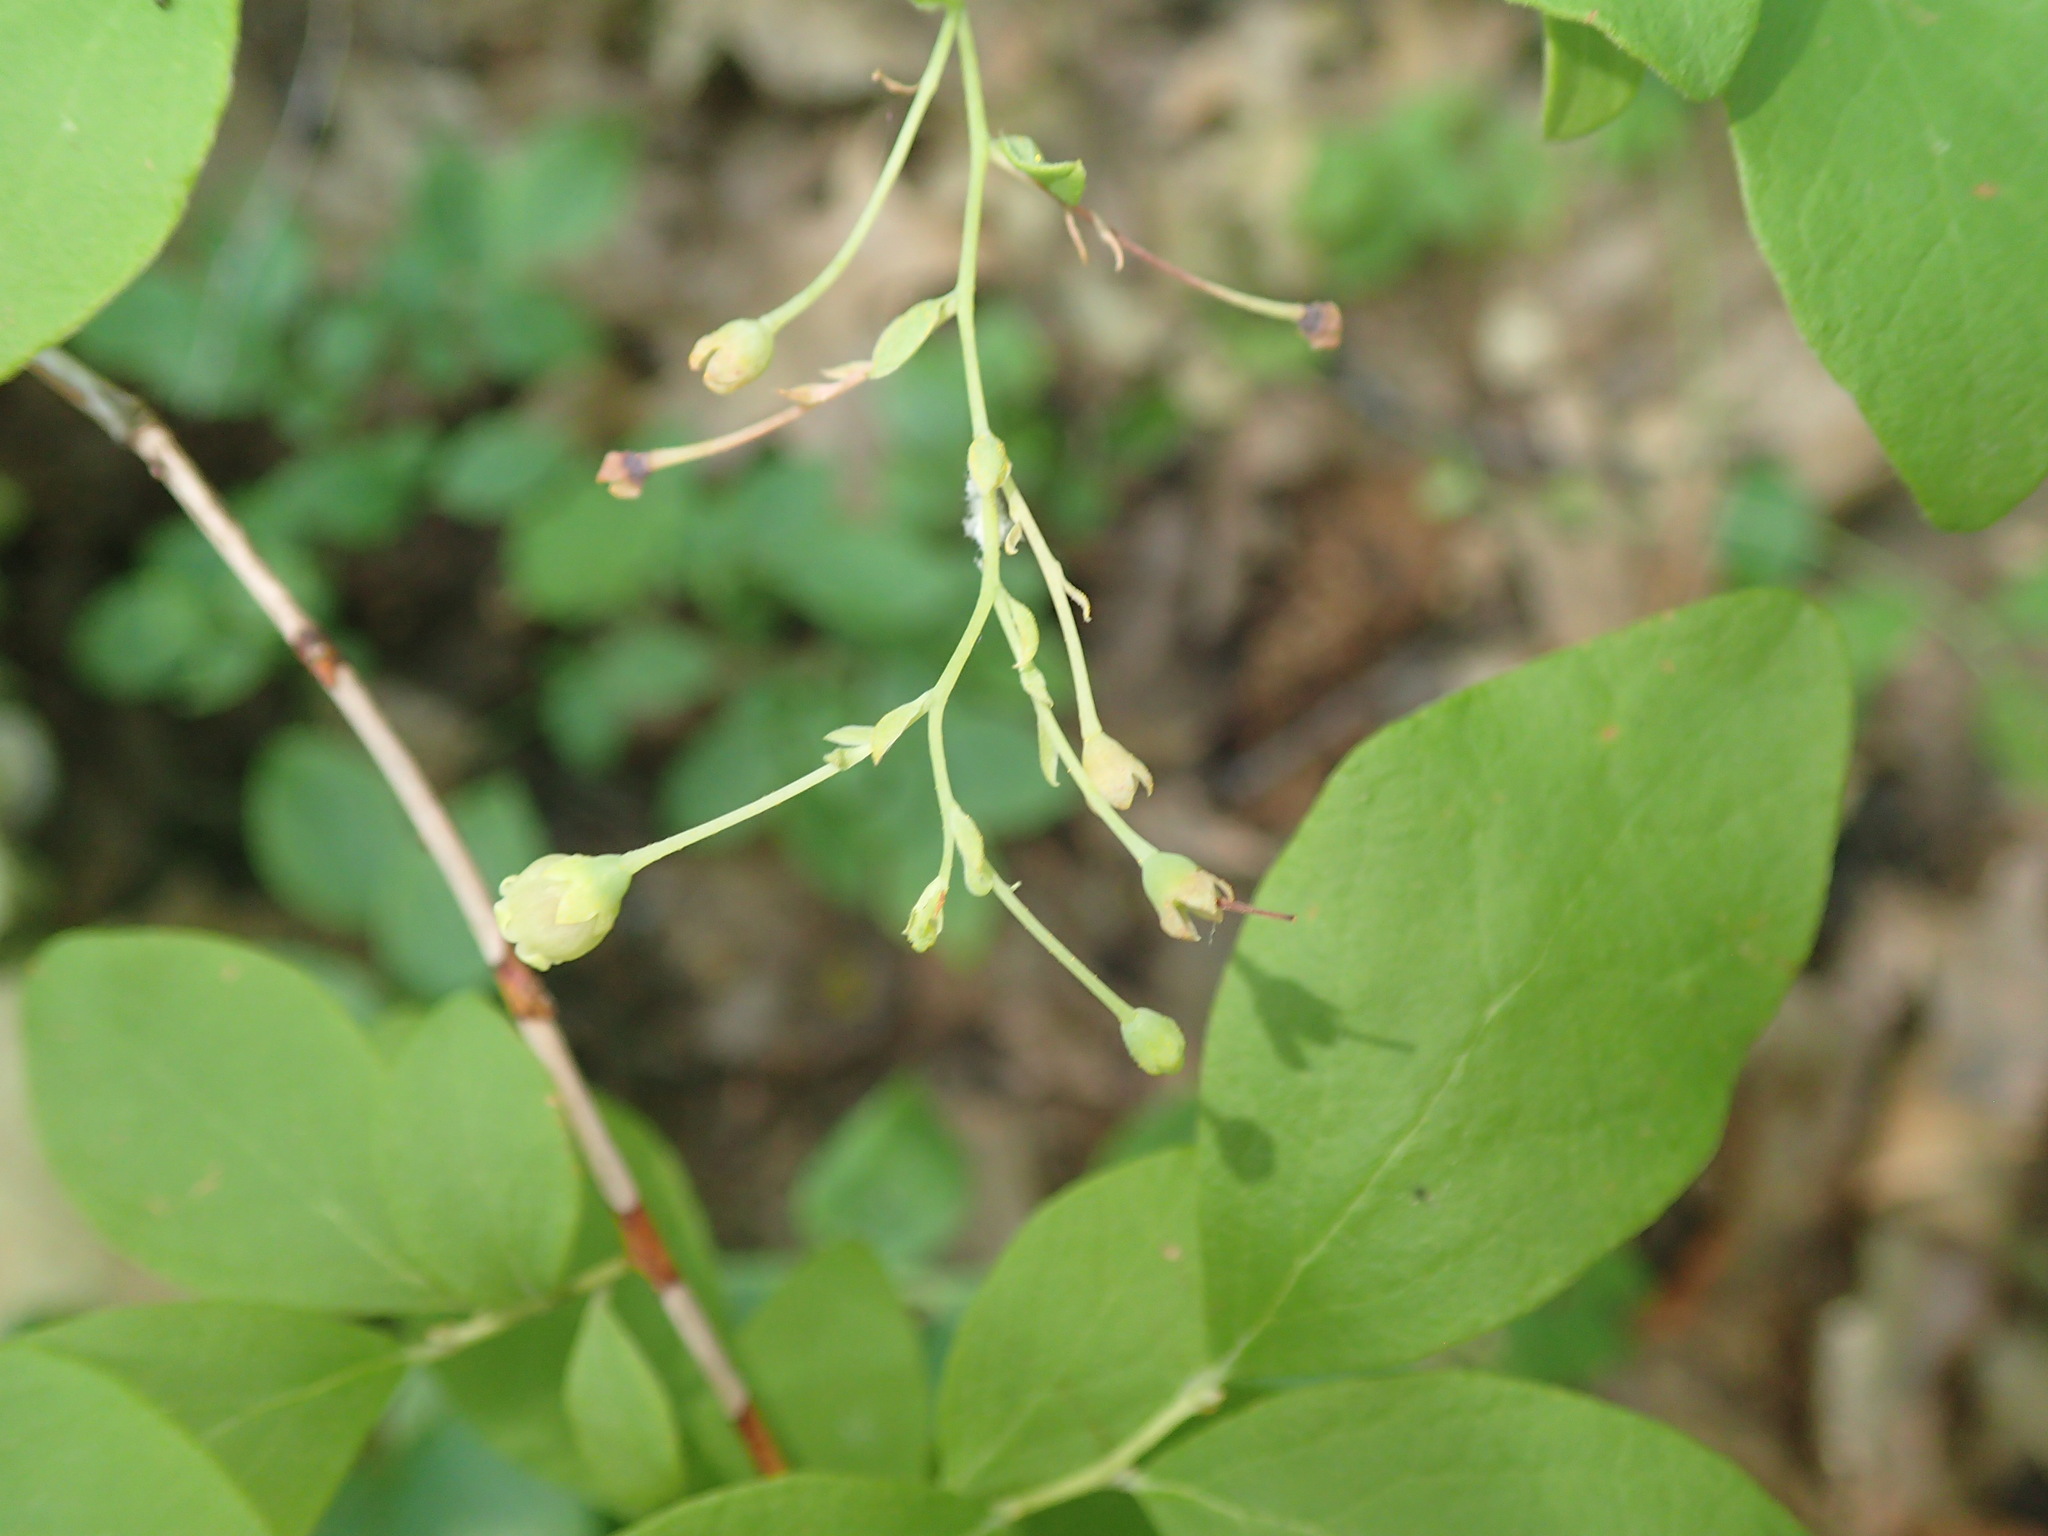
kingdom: Plantae
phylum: Tracheophyta
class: Magnoliopsida
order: Ericales
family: Ericaceae
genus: Gaylussacia
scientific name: Gaylussacia frondosa
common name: Dangleberry
